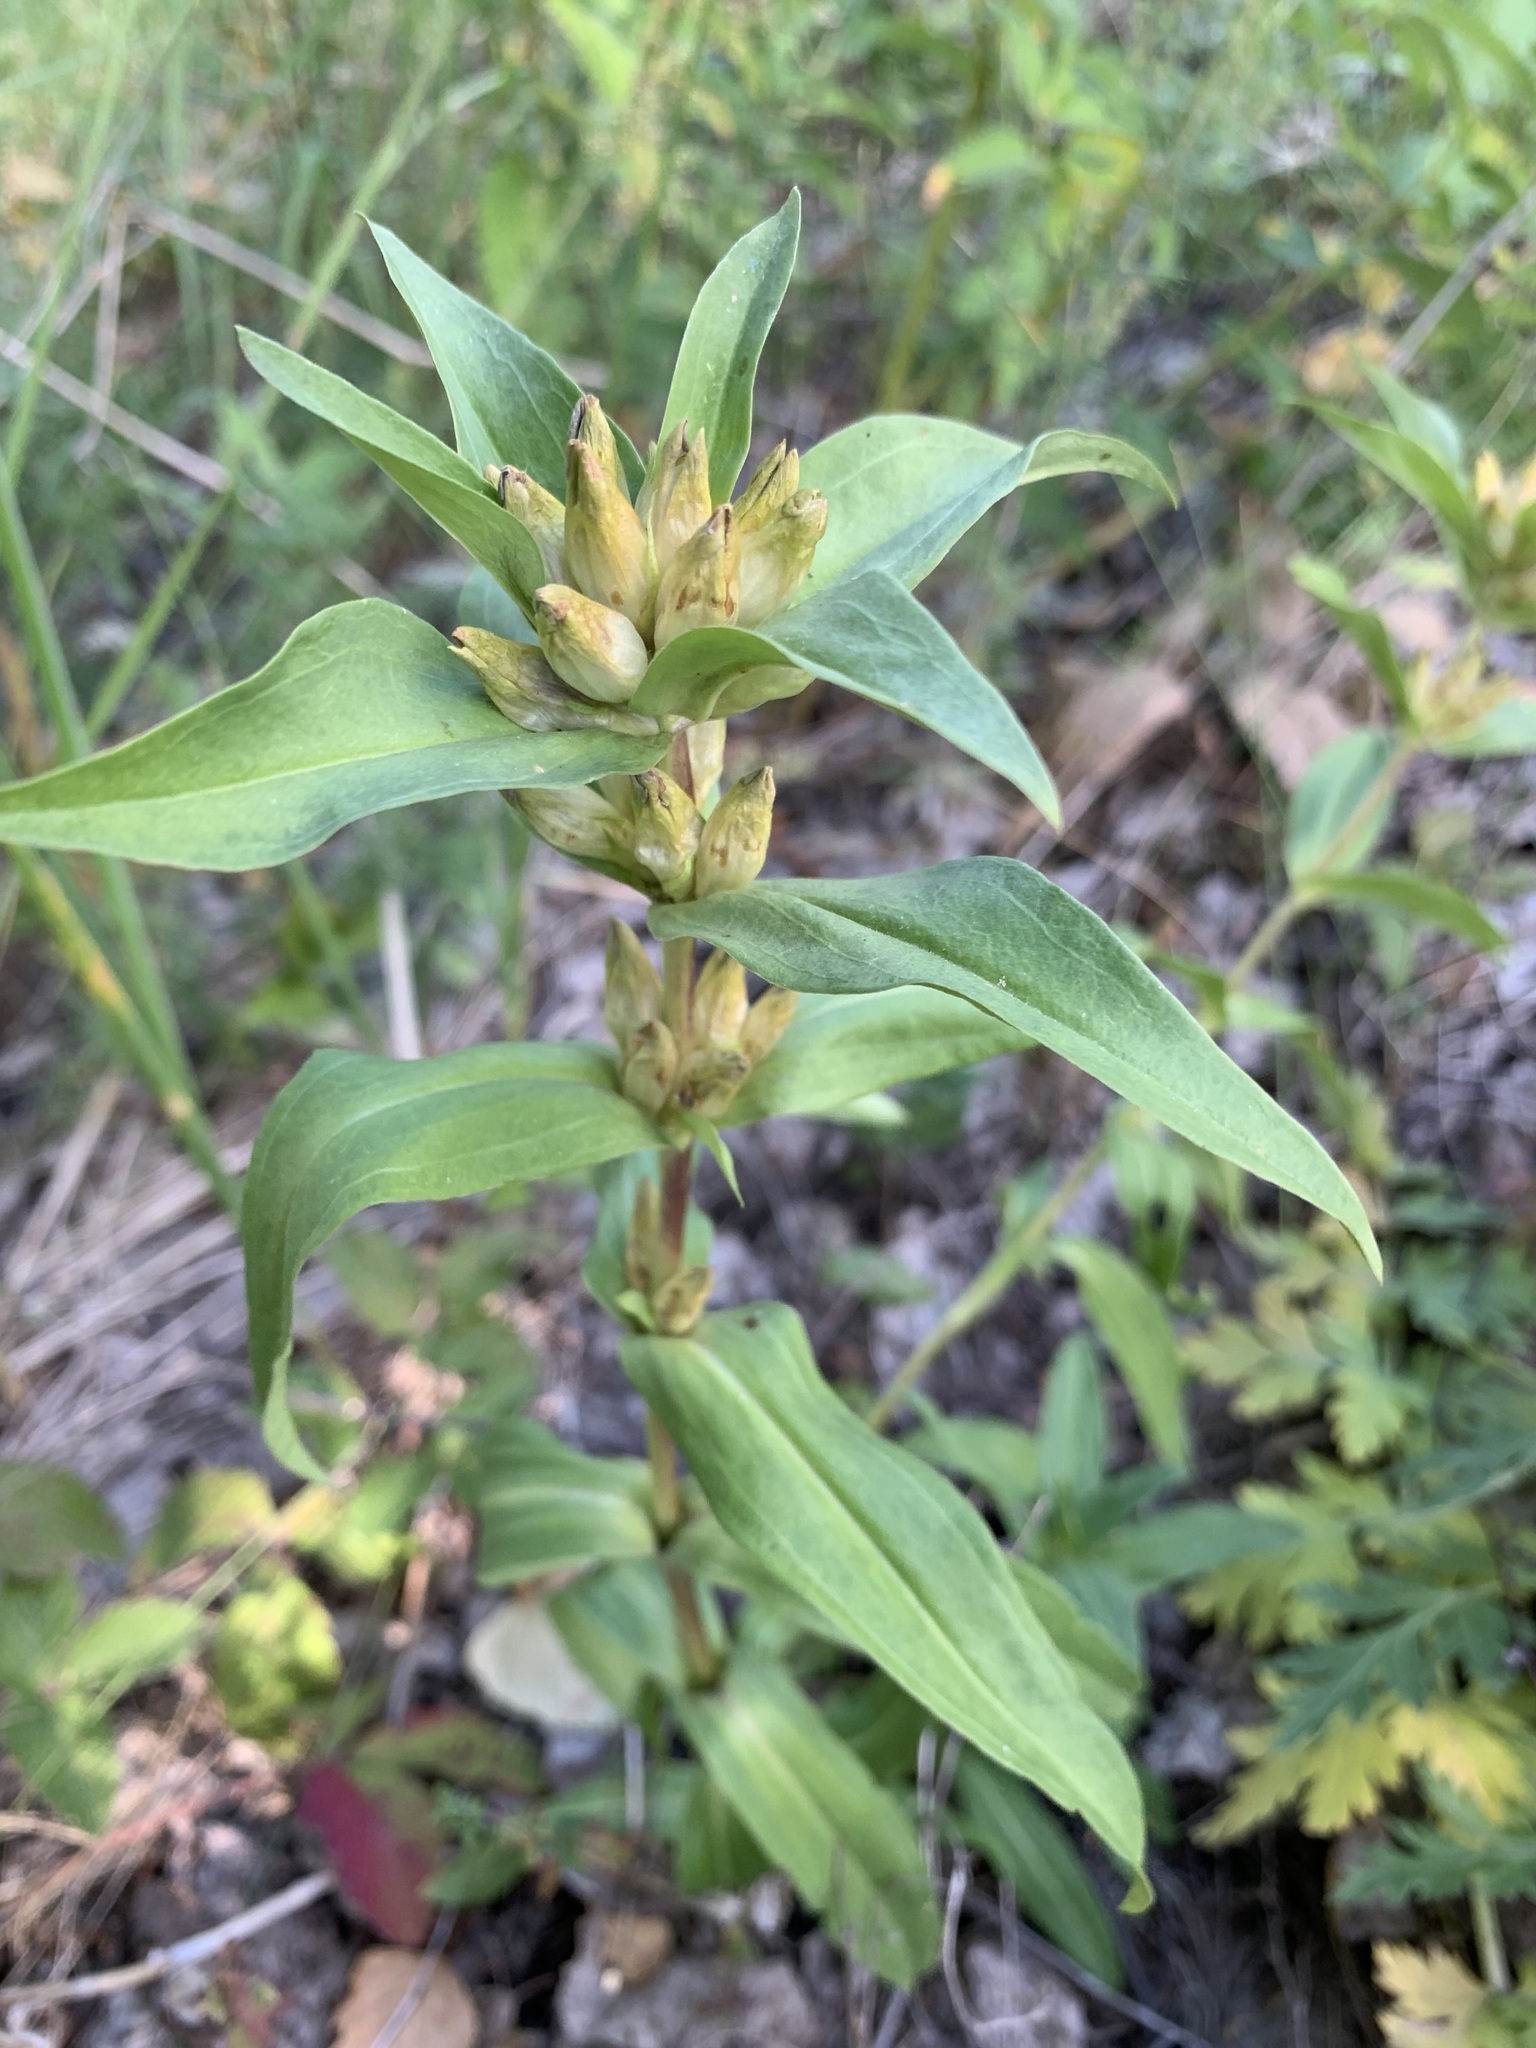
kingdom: Plantae
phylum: Tracheophyta
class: Magnoliopsida
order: Gentianales
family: Gentianaceae
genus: Gentiana
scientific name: Gentiana cruciata
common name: Cross gentian
